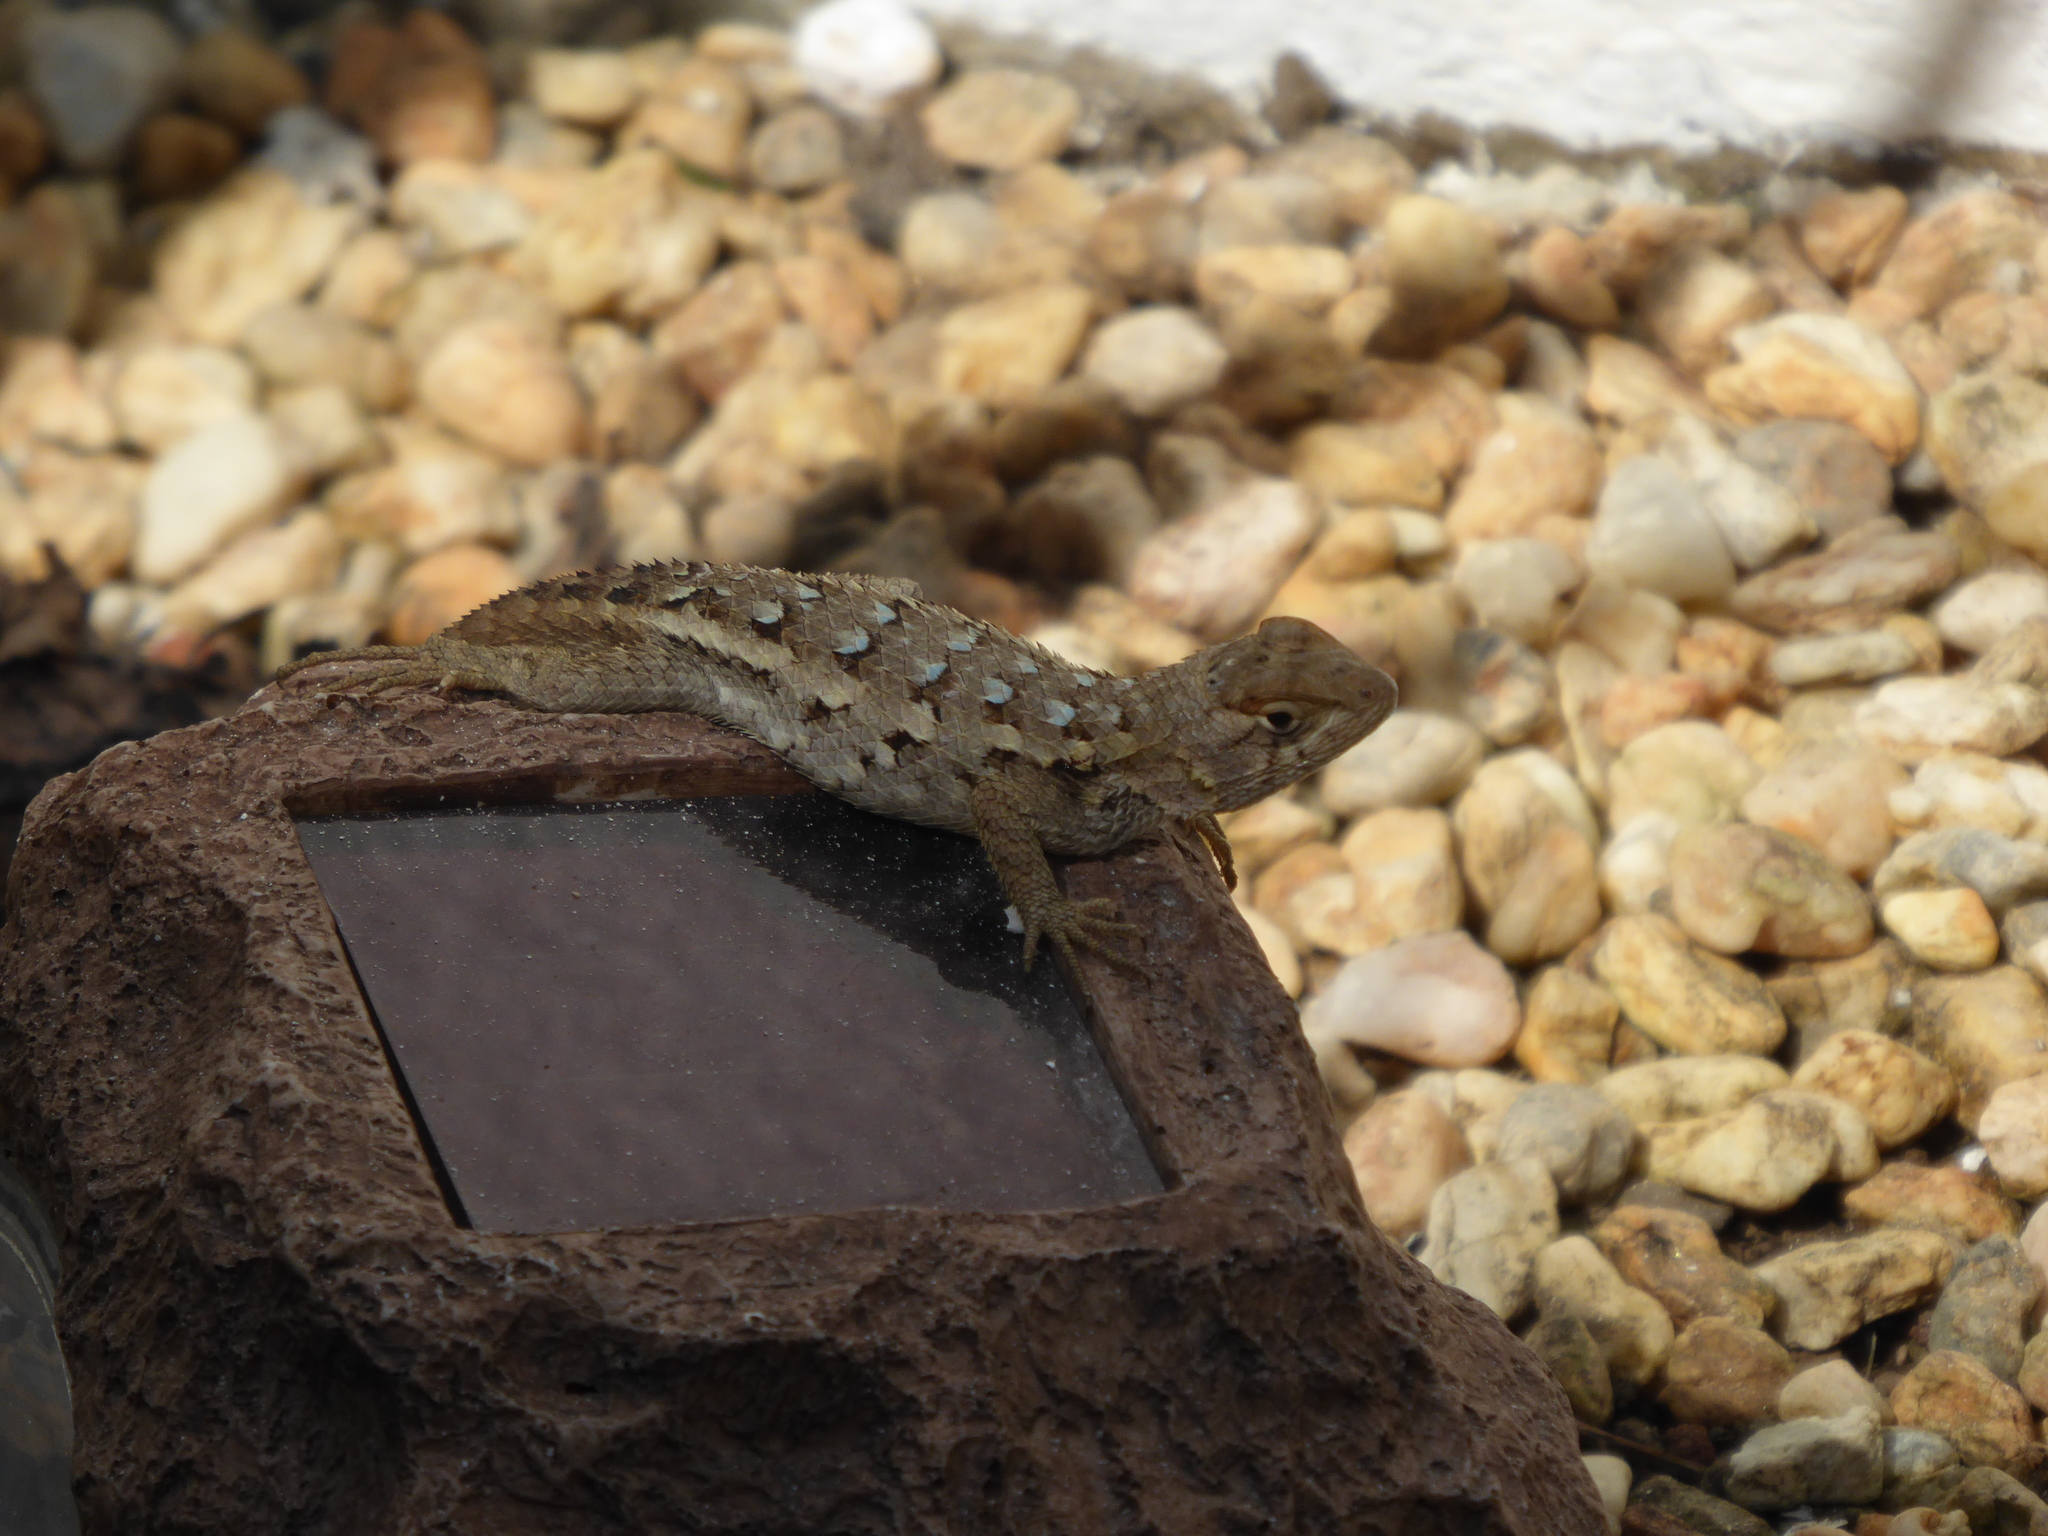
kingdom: Animalia
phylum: Chordata
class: Squamata
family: Phrynosomatidae
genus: Sceloporus
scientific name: Sceloporus horridus
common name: Few-pored rough lizard
